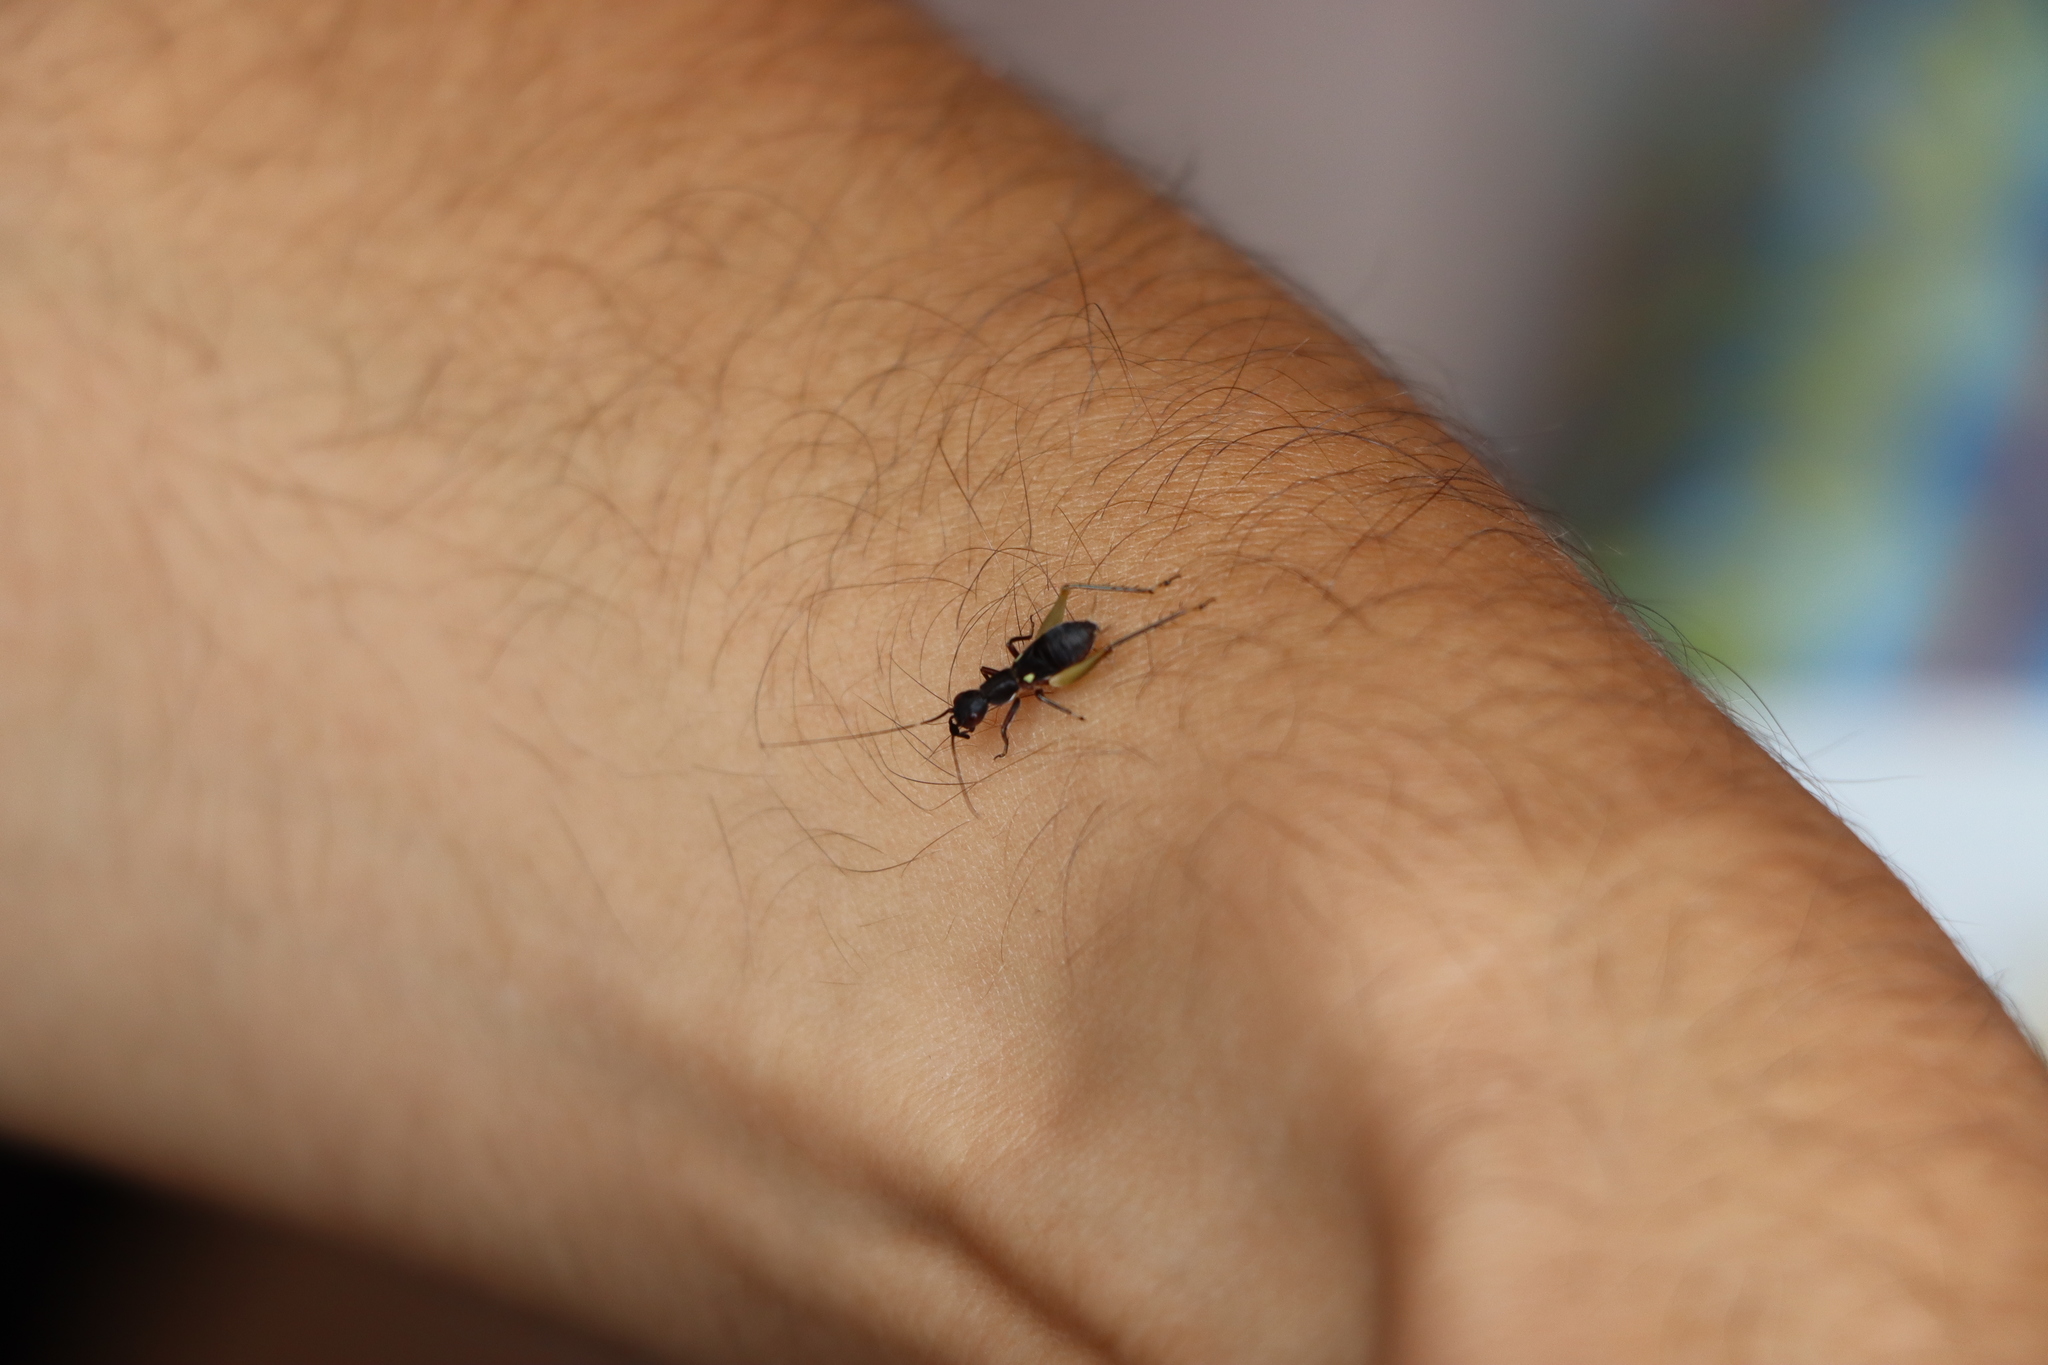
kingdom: Animalia
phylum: Arthropoda
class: Insecta
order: Orthoptera
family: Trigonidiidae
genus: Cranistus
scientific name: Cranistus colliurides
